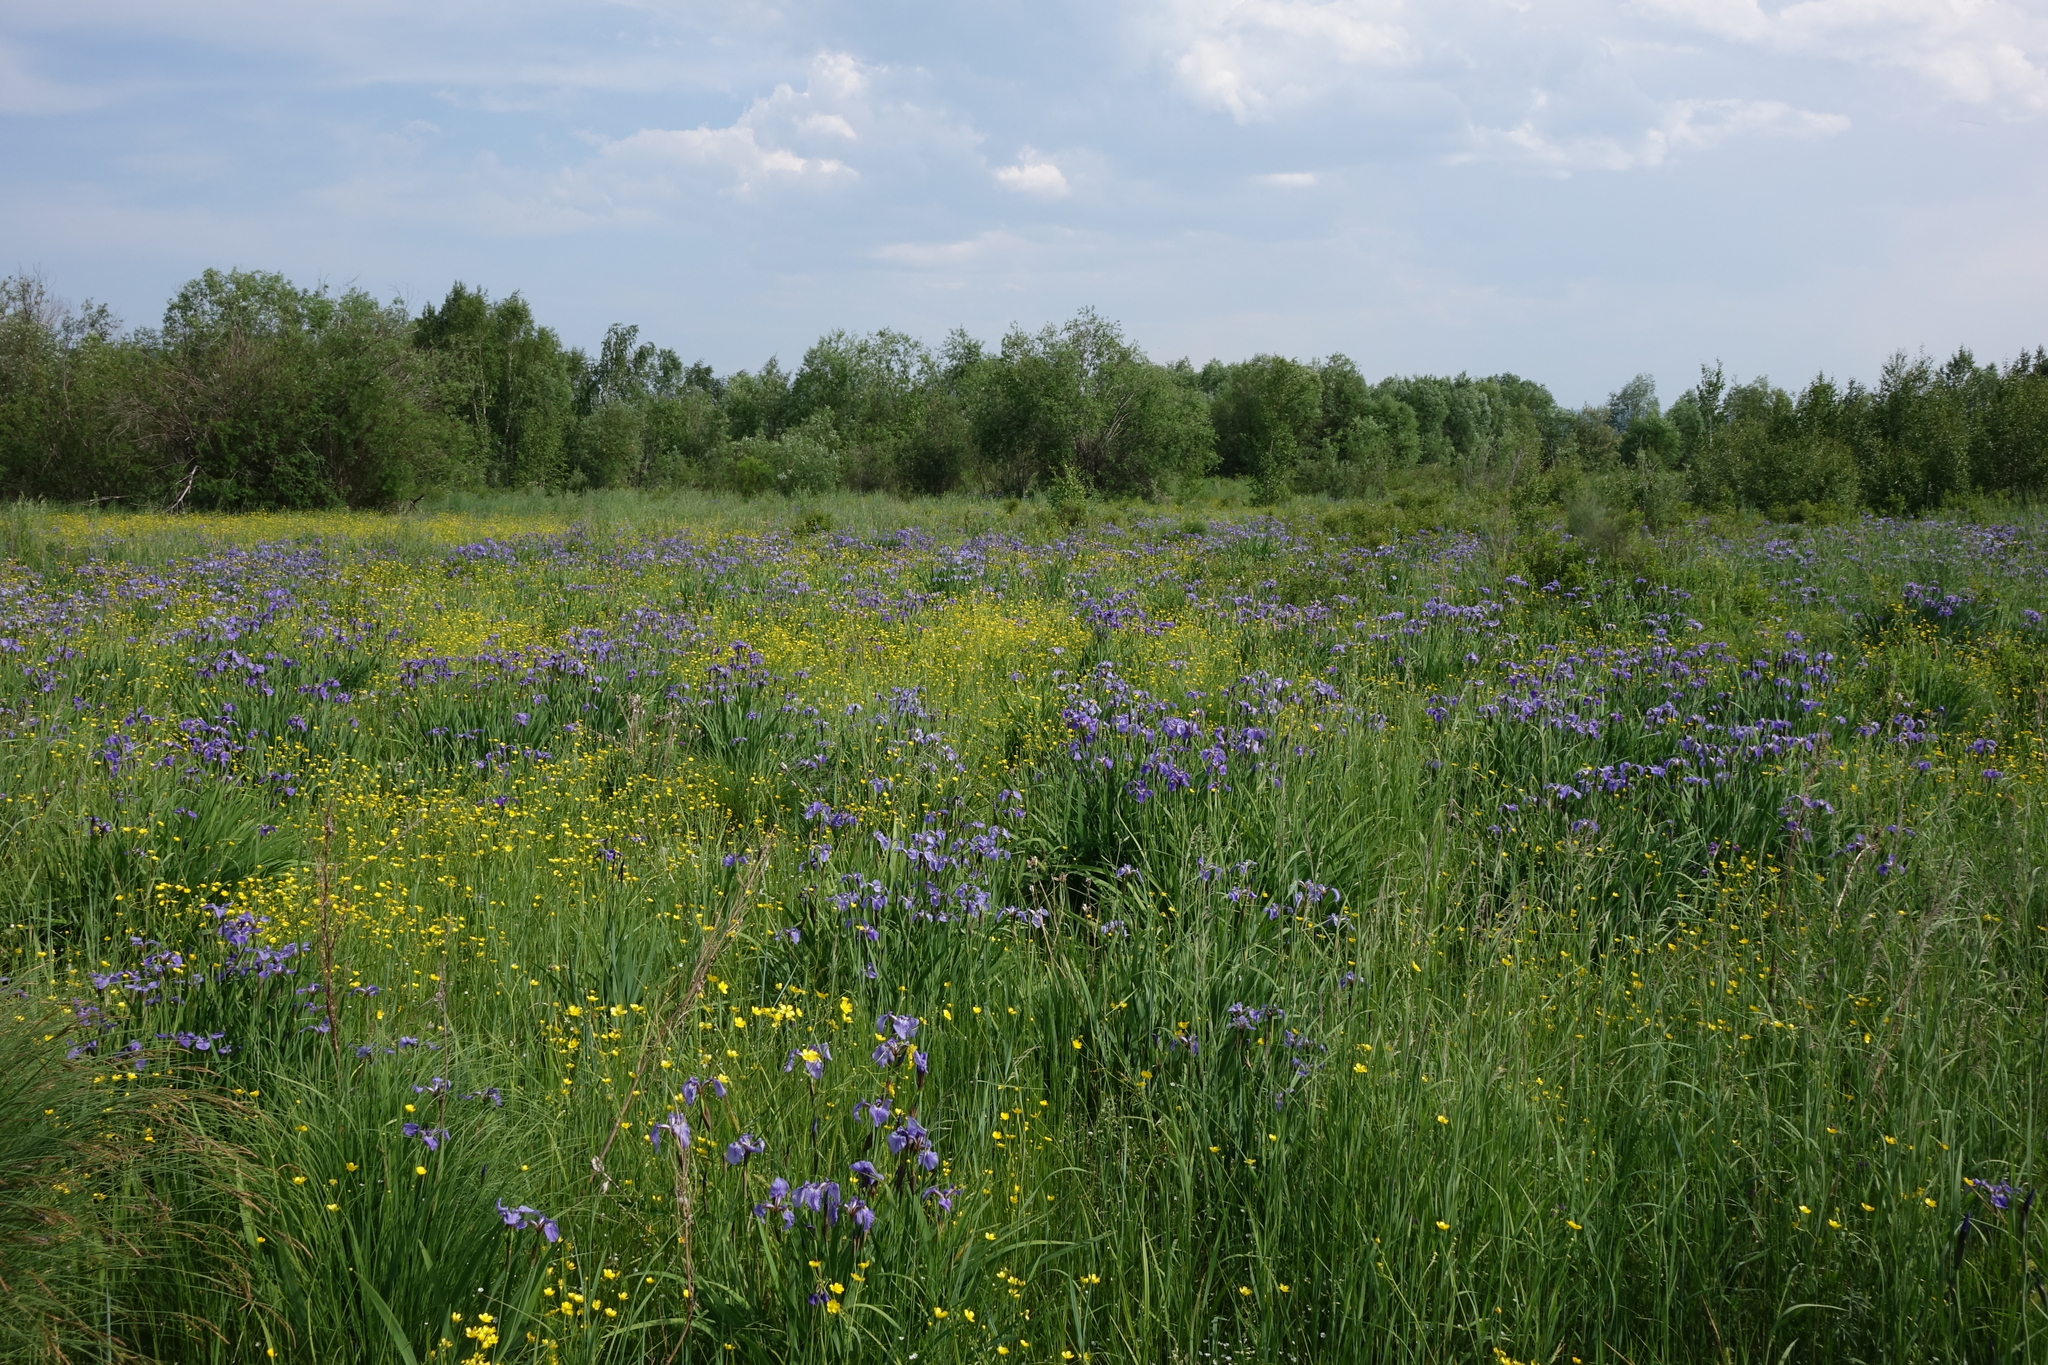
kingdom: Plantae
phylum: Tracheophyta
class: Liliopsida
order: Asparagales
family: Iridaceae
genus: Iris
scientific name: Iris setosa
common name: Arctic blue flag
